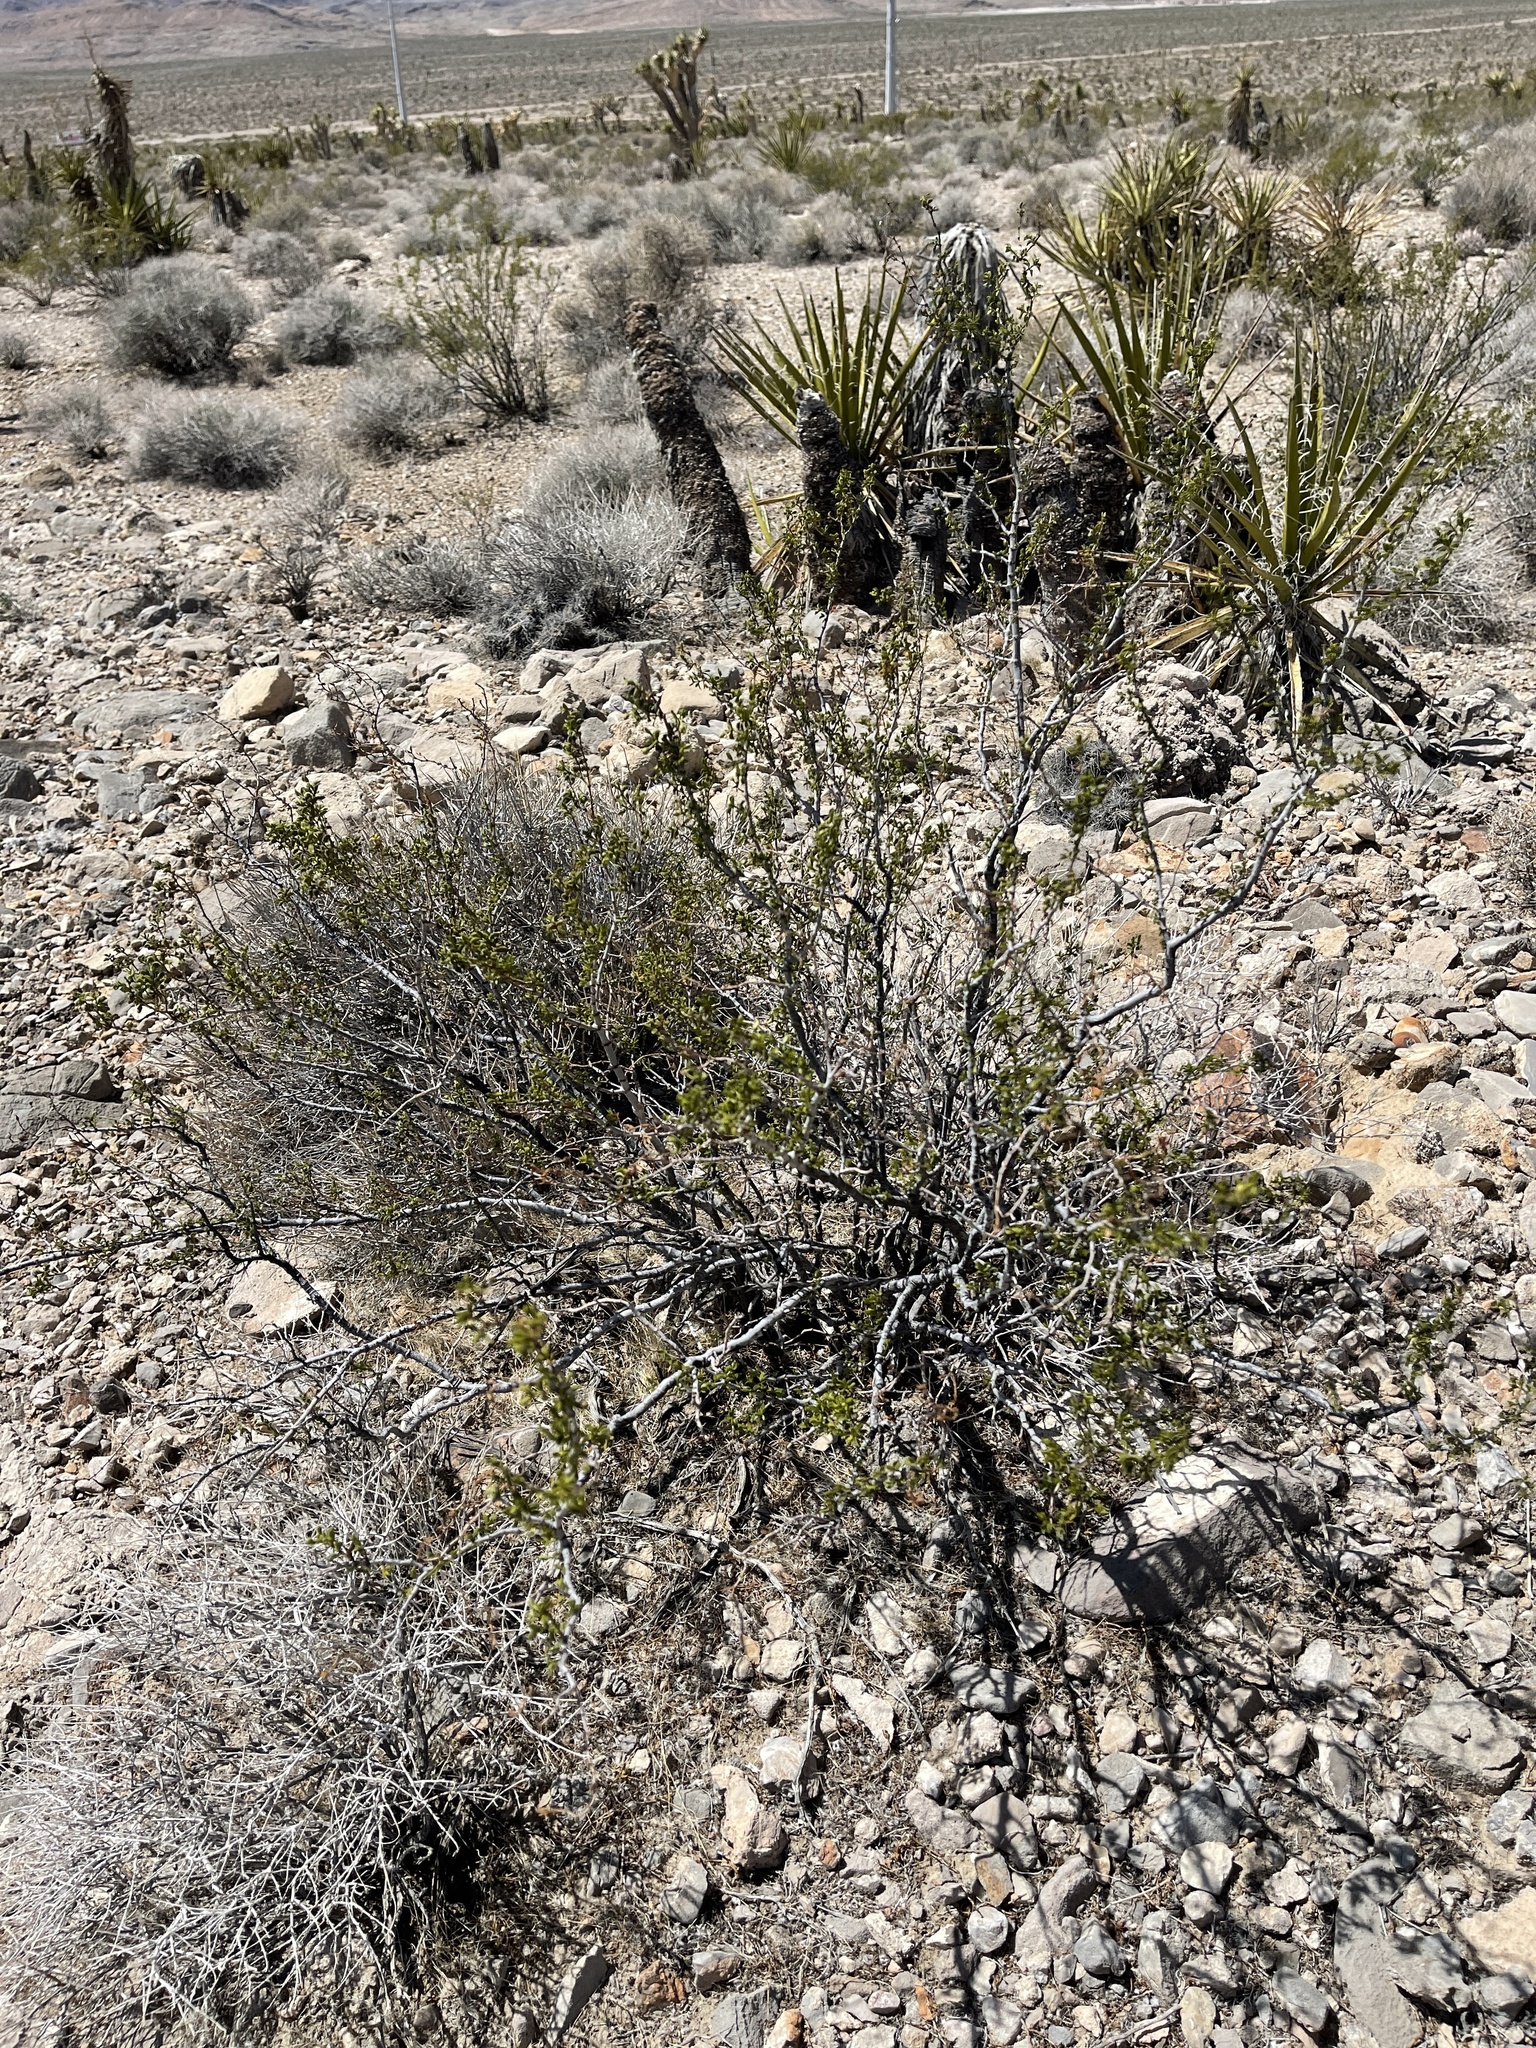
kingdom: Plantae
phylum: Tracheophyta
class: Magnoliopsida
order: Zygophyllales
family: Zygophyllaceae
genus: Larrea
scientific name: Larrea tridentata
